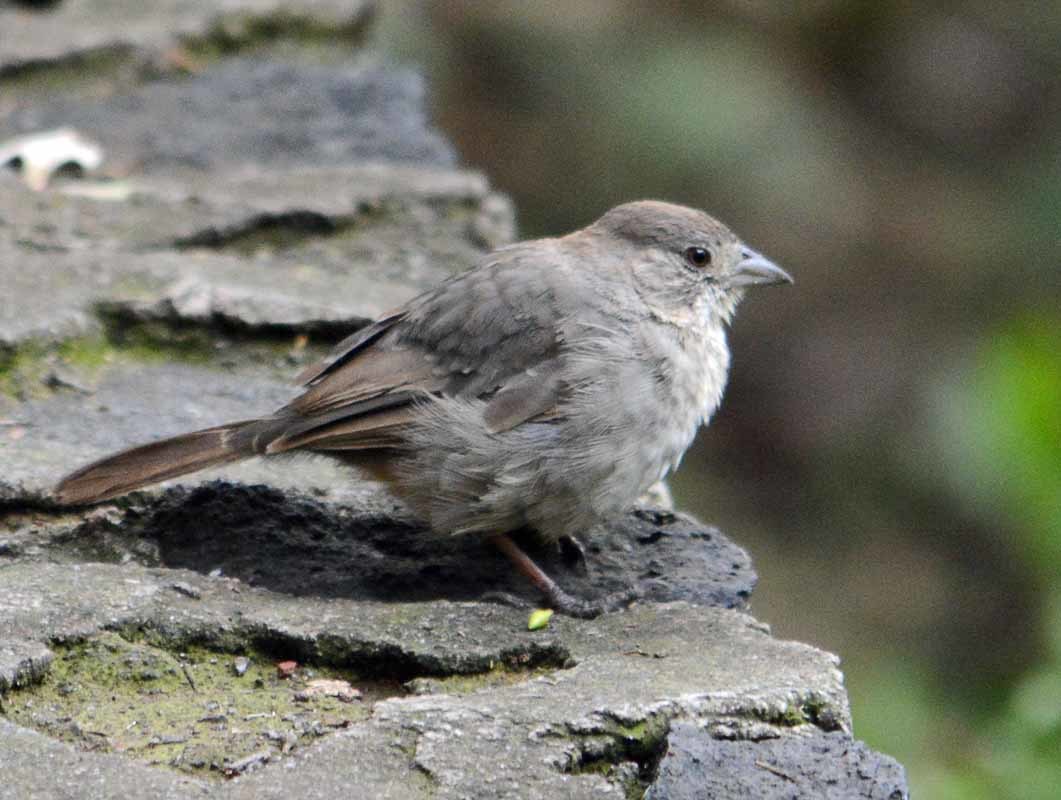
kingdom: Animalia
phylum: Chordata
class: Aves
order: Passeriformes
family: Passerellidae
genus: Melozone
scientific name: Melozone fusca
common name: Canyon towhee
